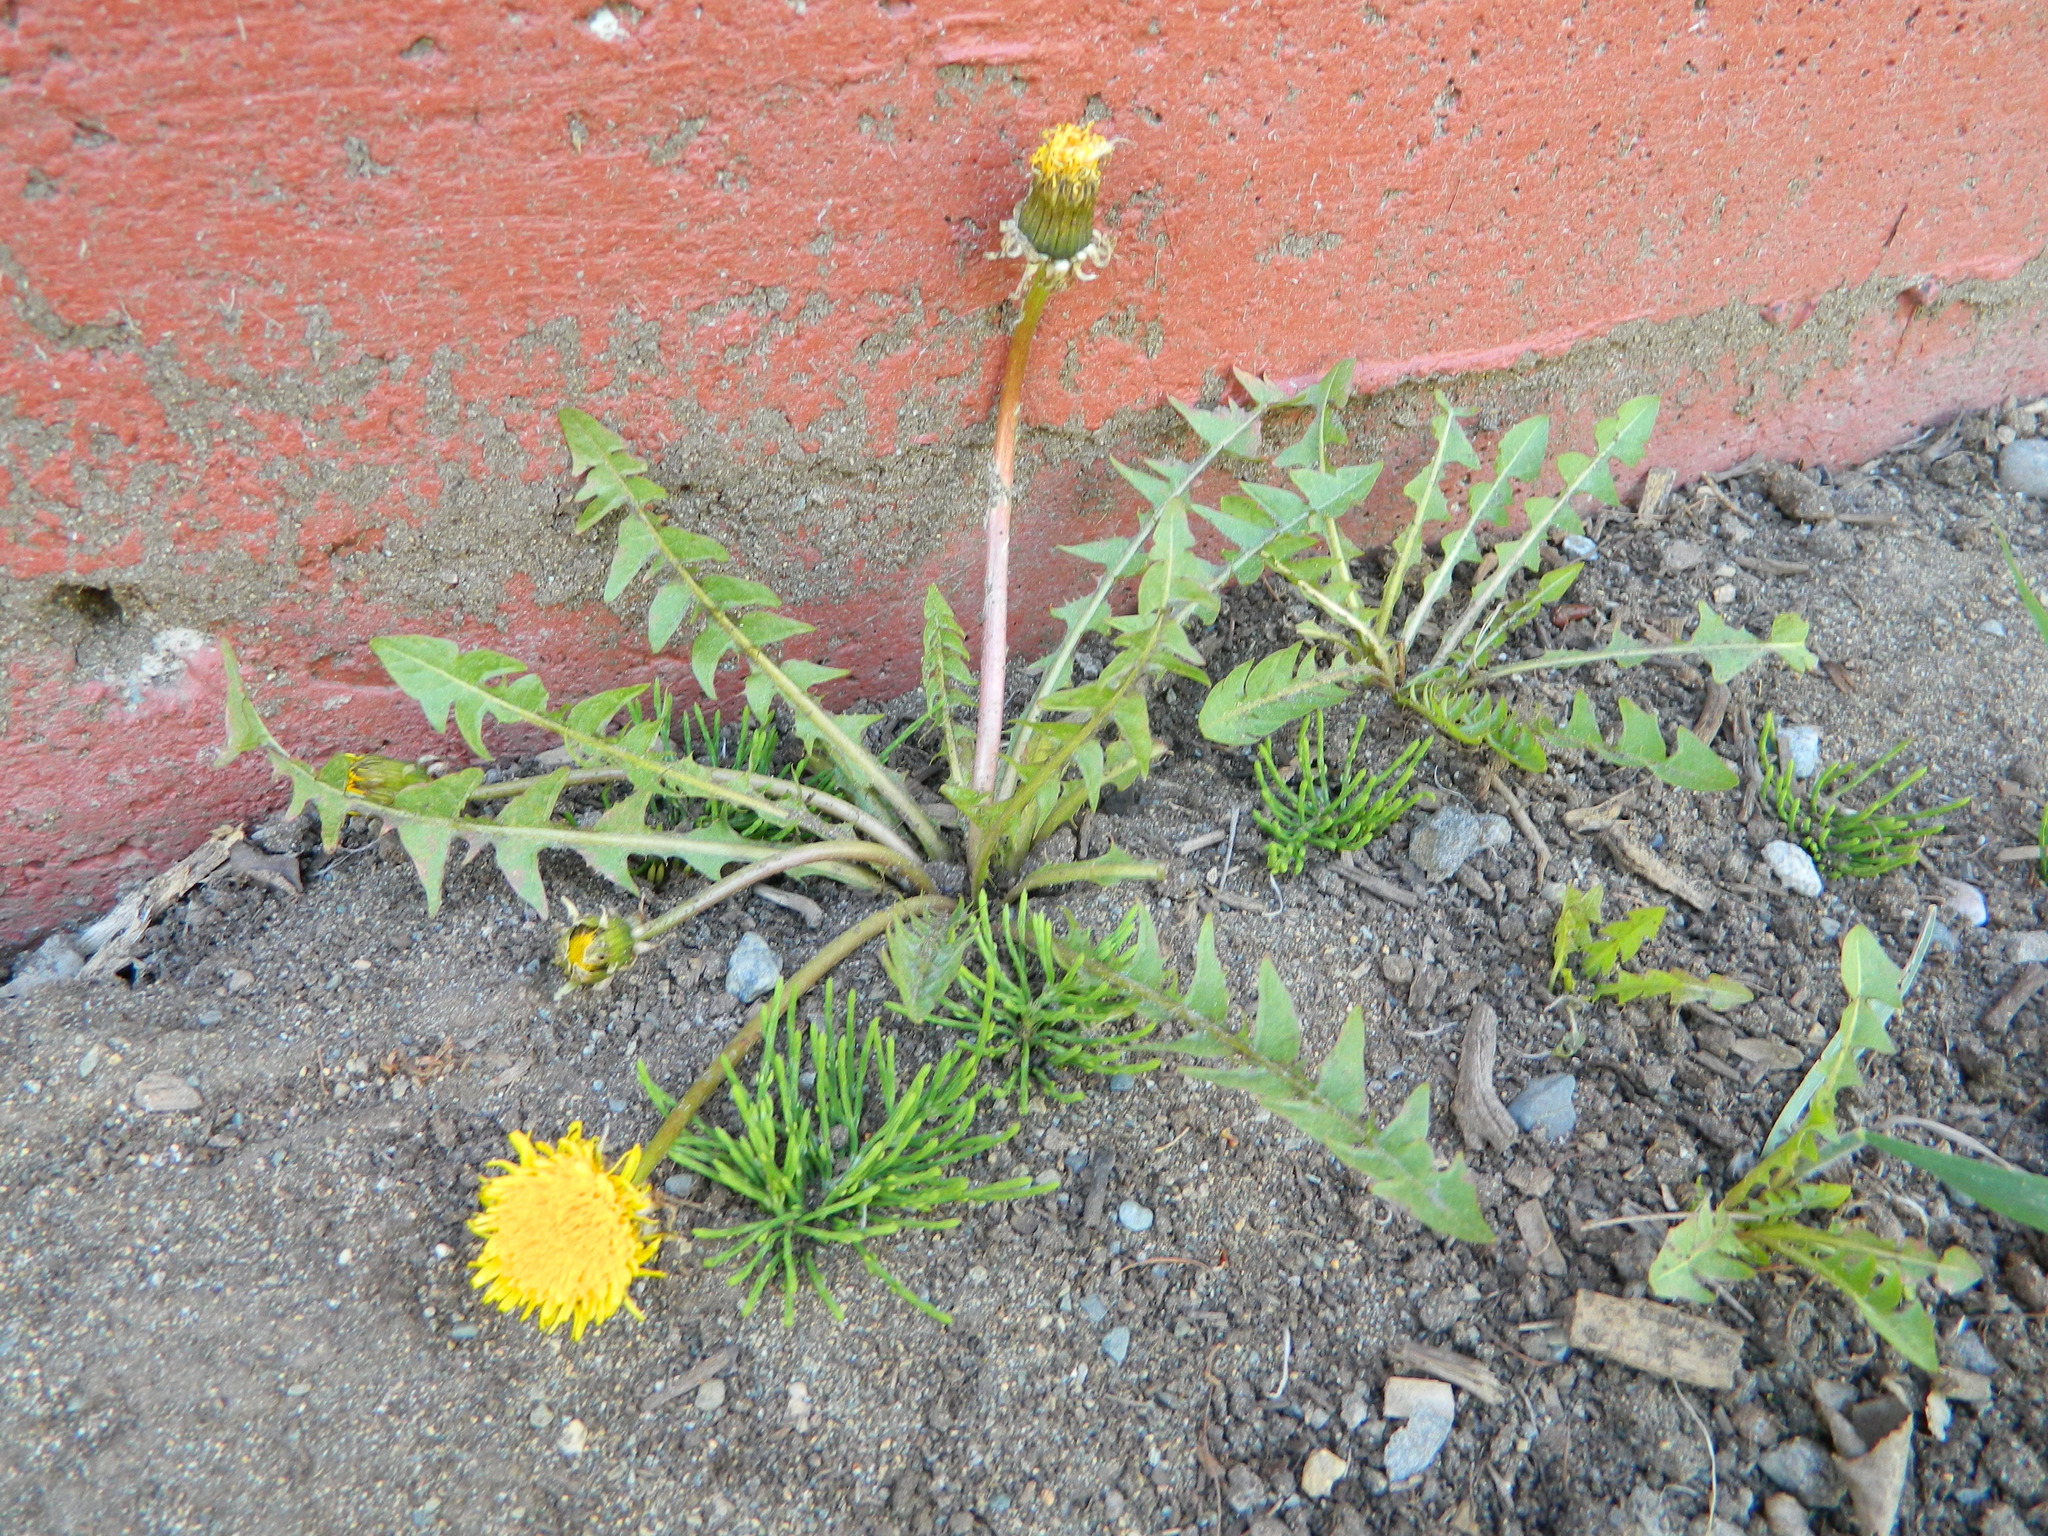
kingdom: Plantae
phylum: Tracheophyta
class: Magnoliopsida
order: Asterales
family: Asteraceae
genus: Taraxacum
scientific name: Taraxacum officinale
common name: Common dandelion
